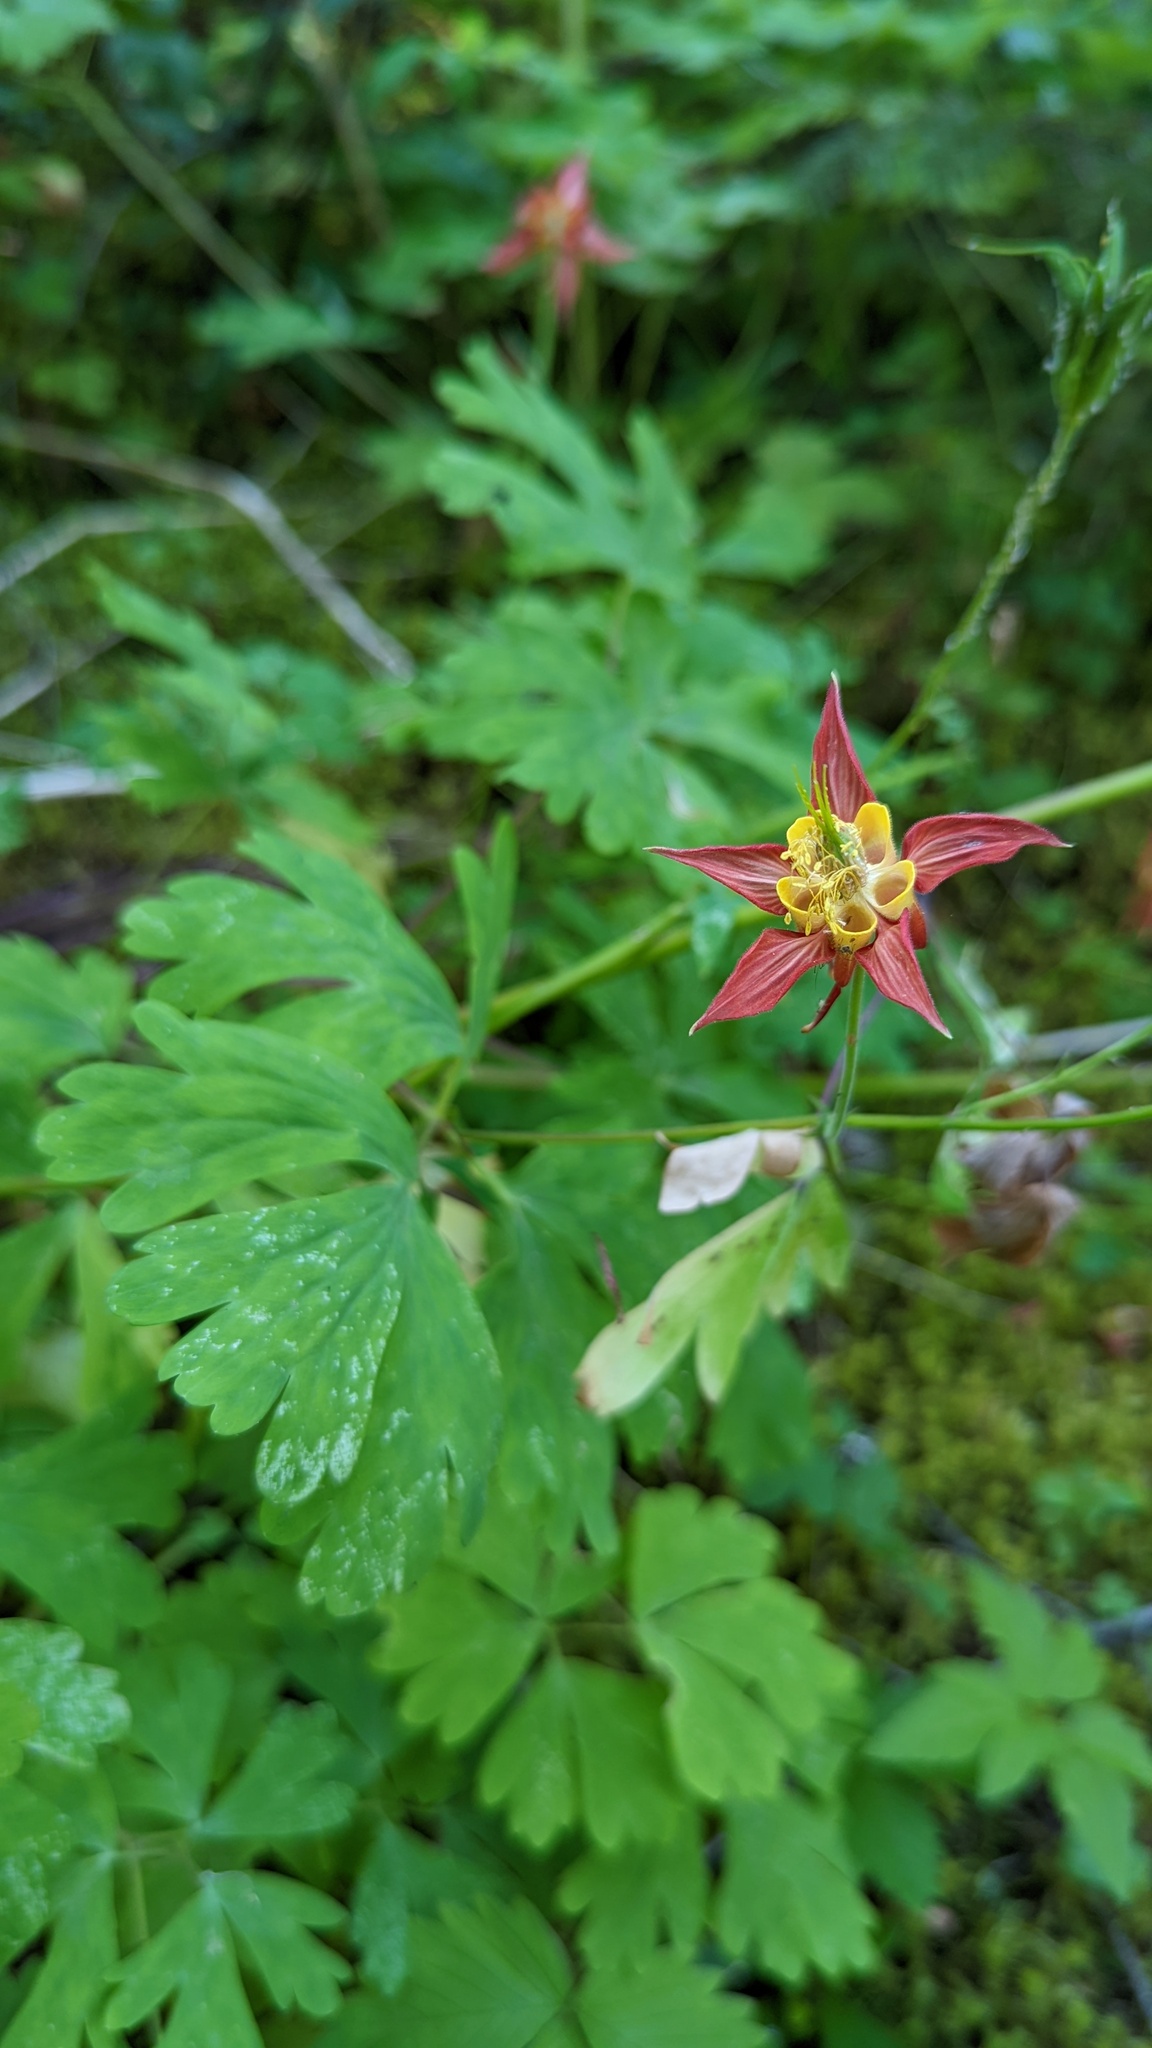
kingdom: Plantae
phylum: Tracheophyta
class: Magnoliopsida
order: Ranunculales
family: Ranunculaceae
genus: Aquilegia
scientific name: Aquilegia formosa
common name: Sitka columbine
